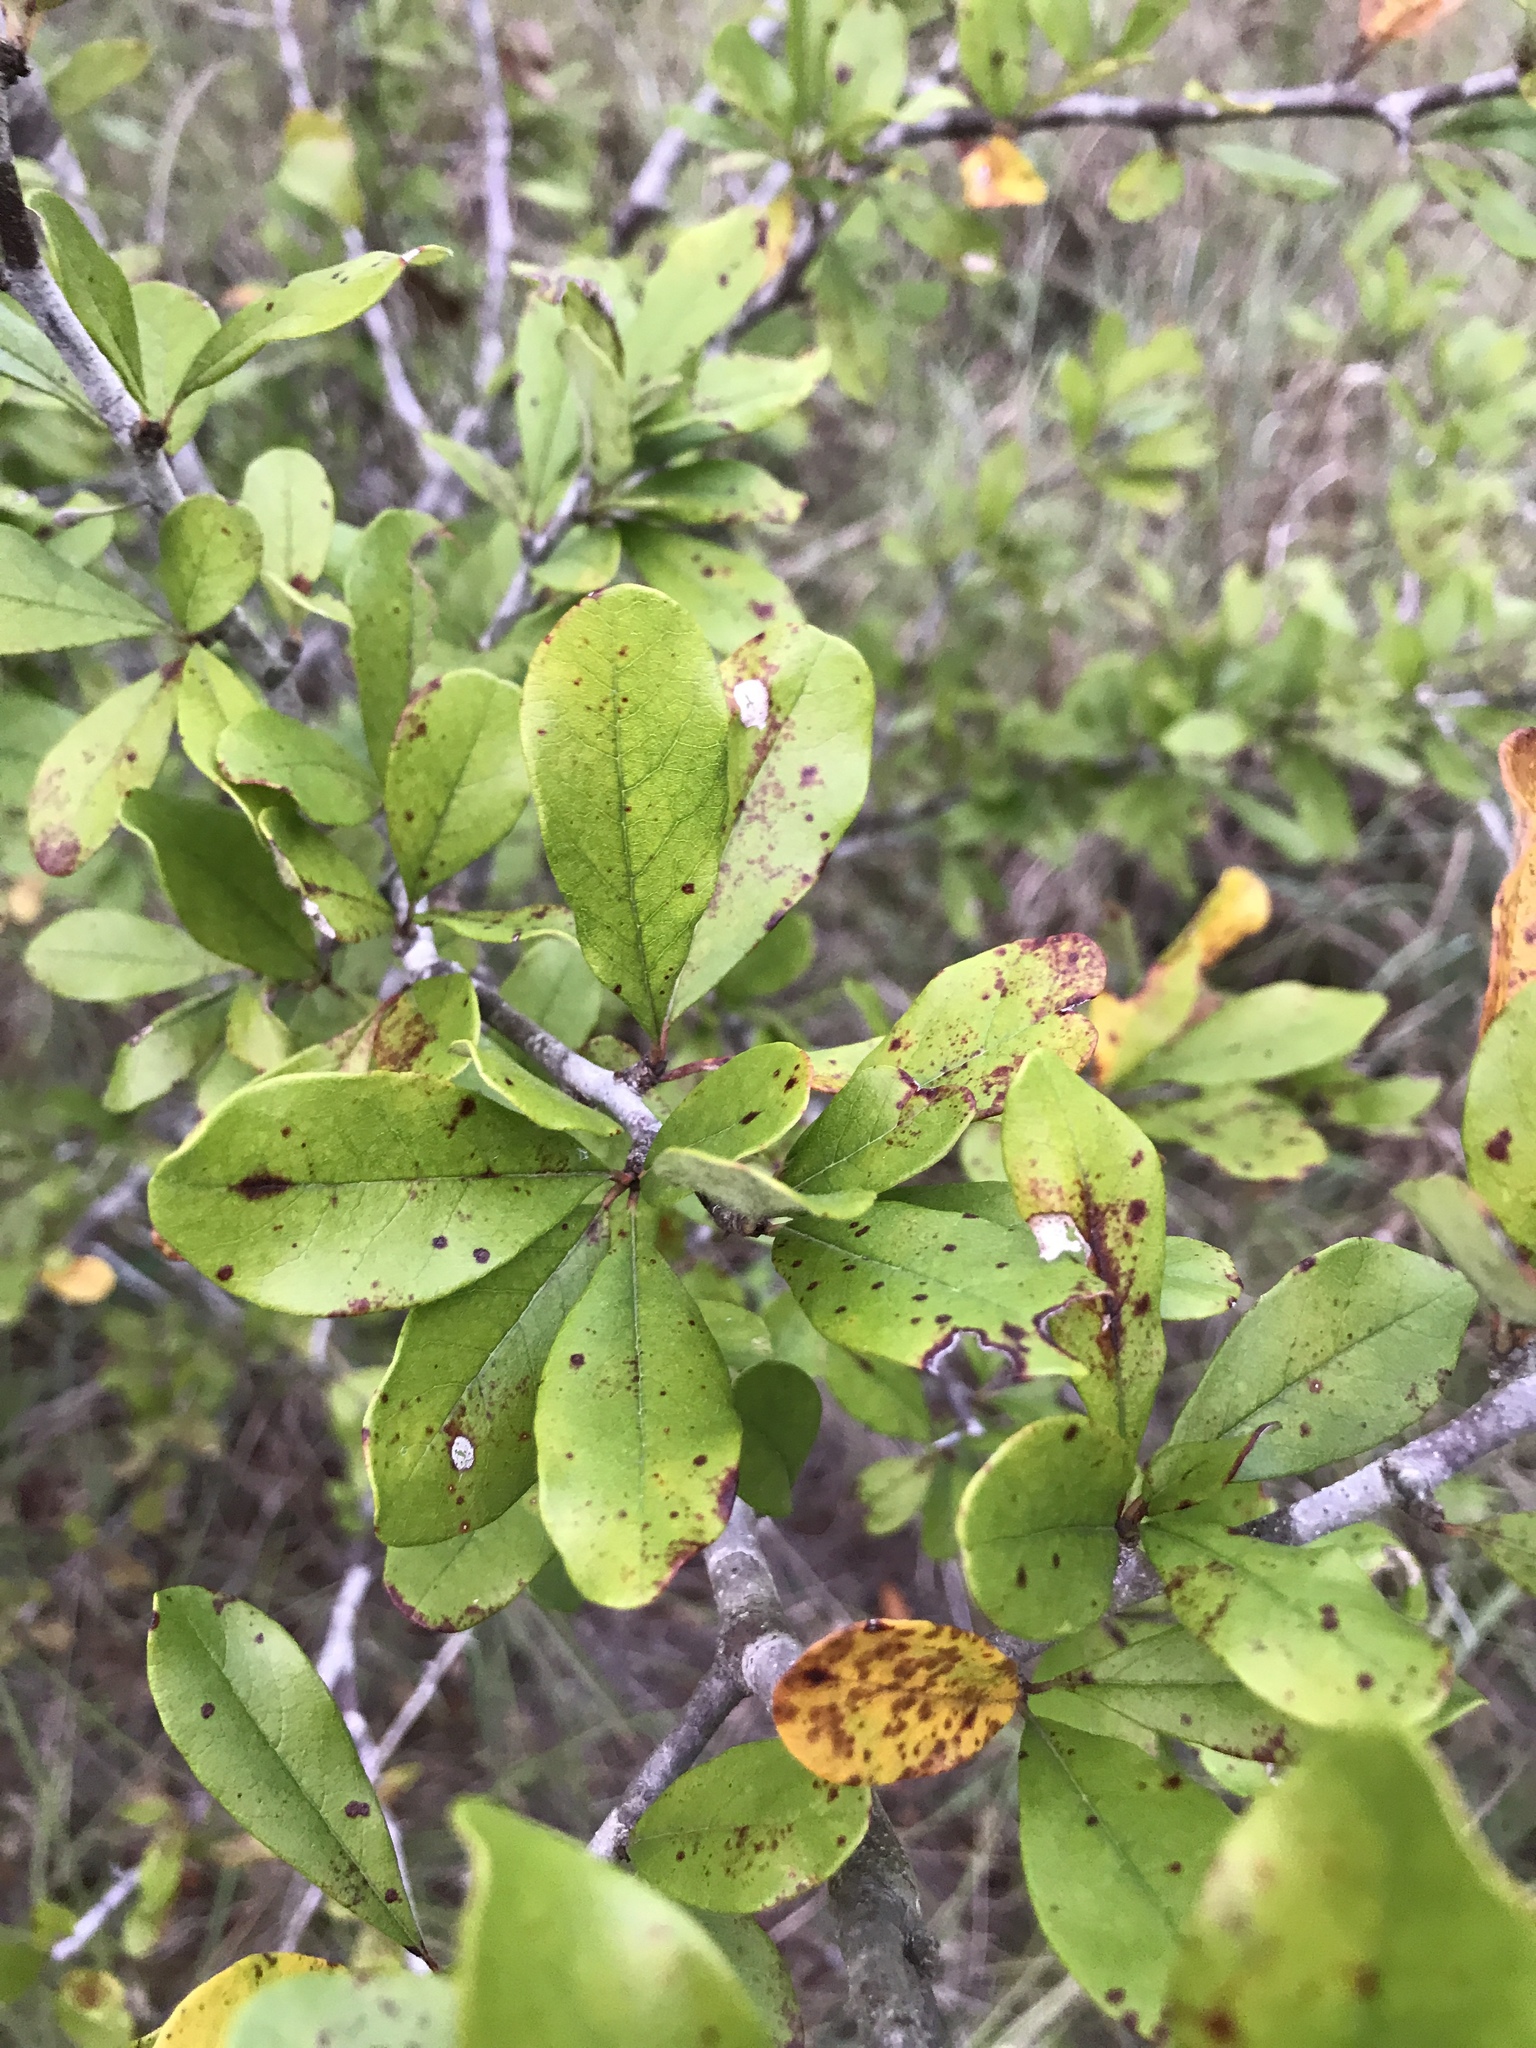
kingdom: Plantae
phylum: Tracheophyta
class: Magnoliopsida
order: Ericales
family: Sapotaceae
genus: Sideroxylon
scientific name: Sideroxylon lanuginosum
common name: Chittamwood
